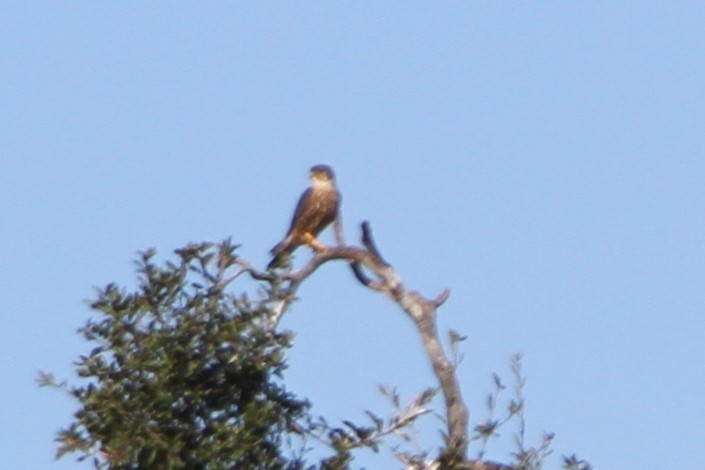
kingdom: Animalia
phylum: Chordata
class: Aves
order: Falconiformes
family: Falconidae
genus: Falco
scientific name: Falco columbarius
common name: Merlin
